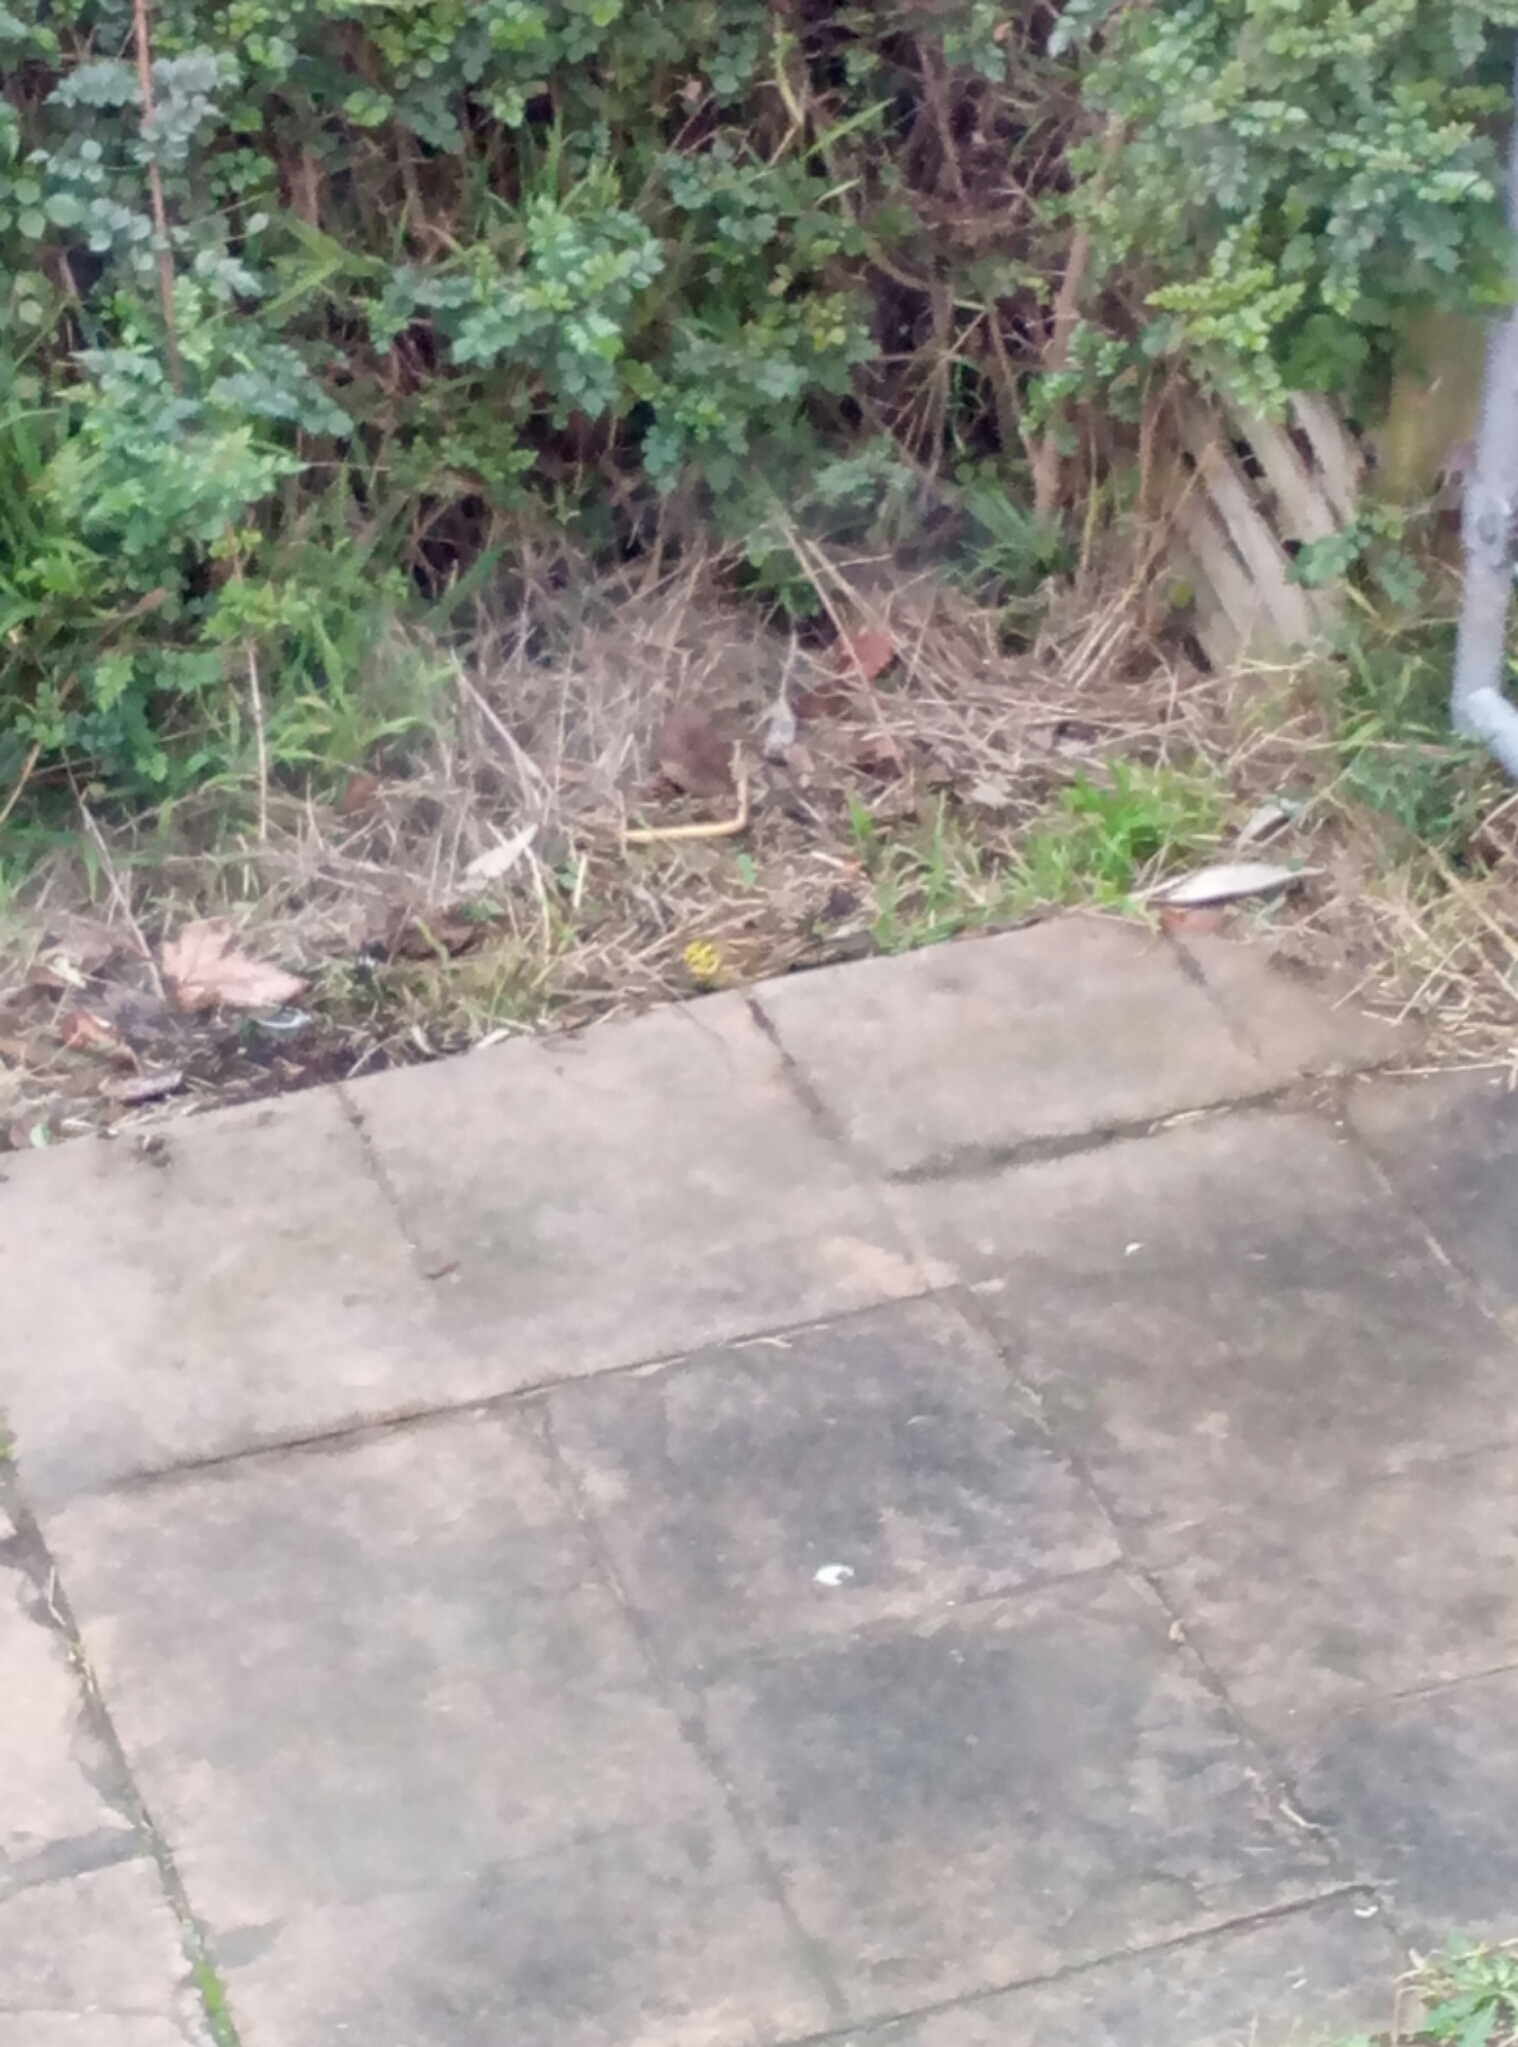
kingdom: Animalia
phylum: Chordata
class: Aves
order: Passeriformes
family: Emberizidae
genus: Emberiza
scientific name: Emberiza citrinella
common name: Yellowhammer
